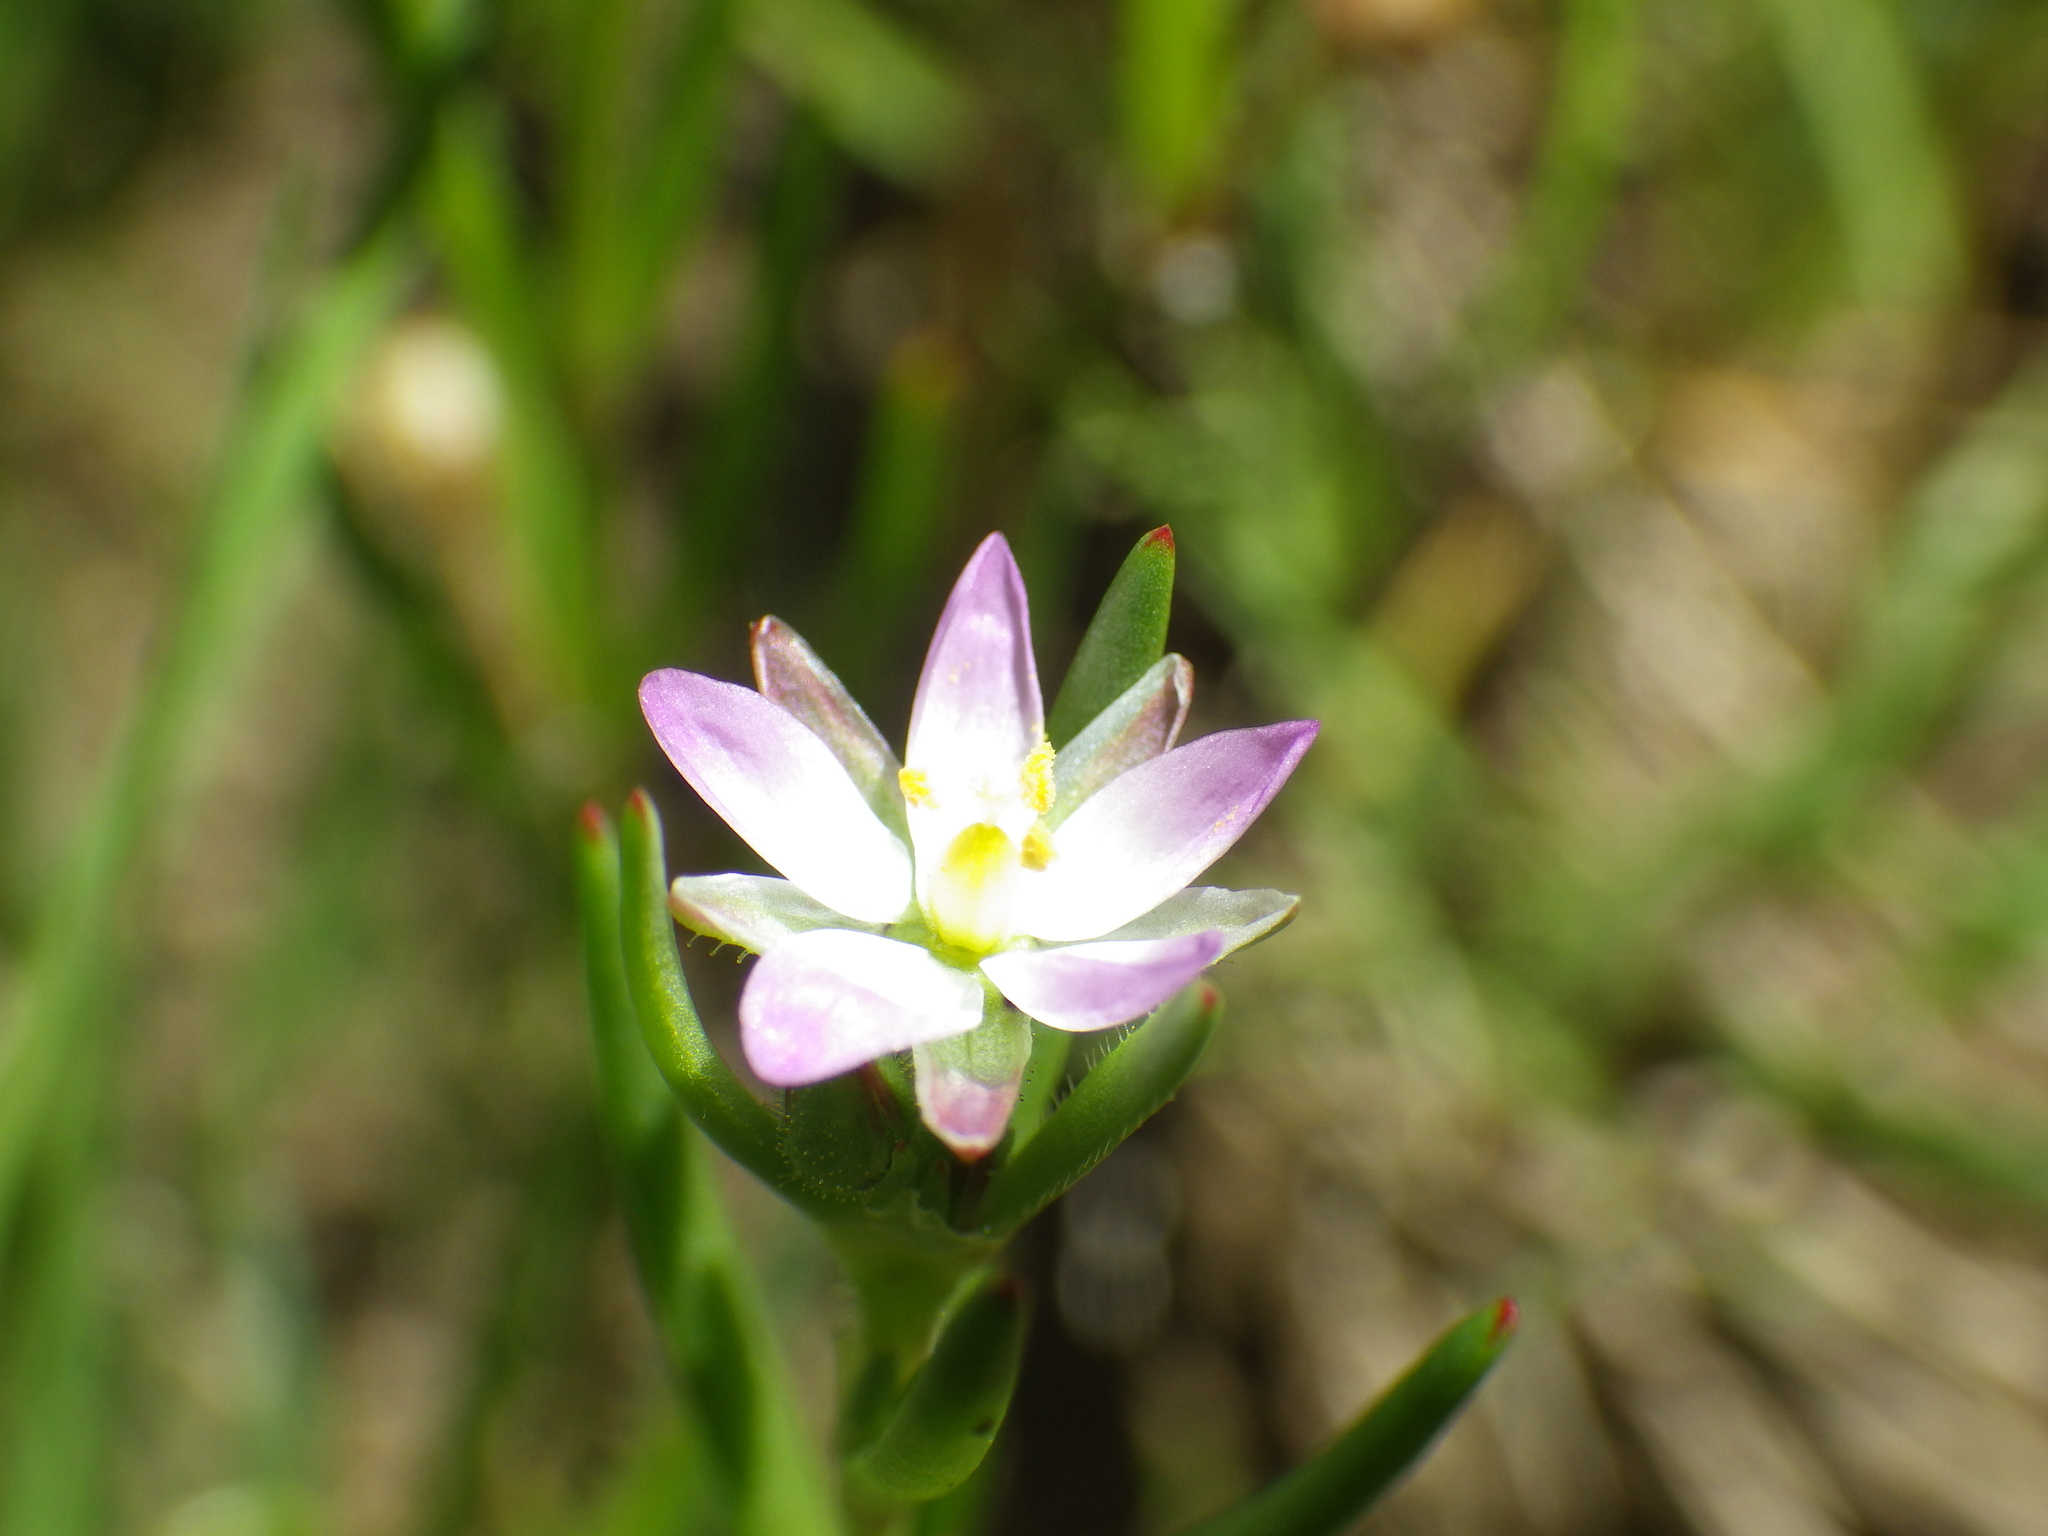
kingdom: Plantae
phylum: Tracheophyta
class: Magnoliopsida
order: Caryophyllales
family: Caryophyllaceae
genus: Spergularia
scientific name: Spergularia macrotheca
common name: Beach sand-spurrey
